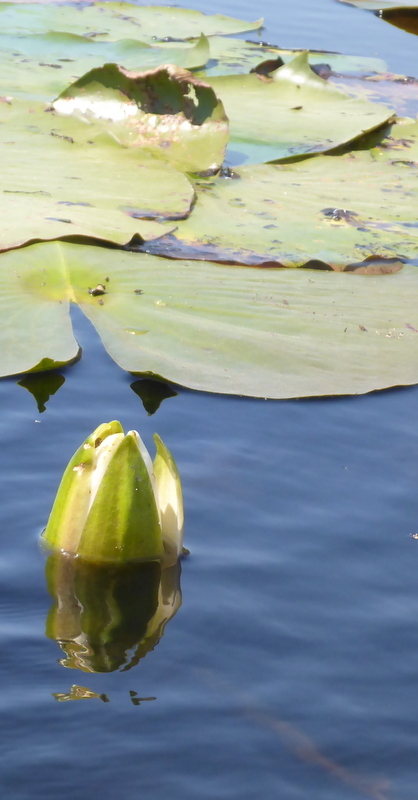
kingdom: Plantae
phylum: Tracheophyta
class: Magnoliopsida
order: Nymphaeales
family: Nymphaeaceae
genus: Nymphaea
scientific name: Nymphaea odorata
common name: Fragrant water-lily
